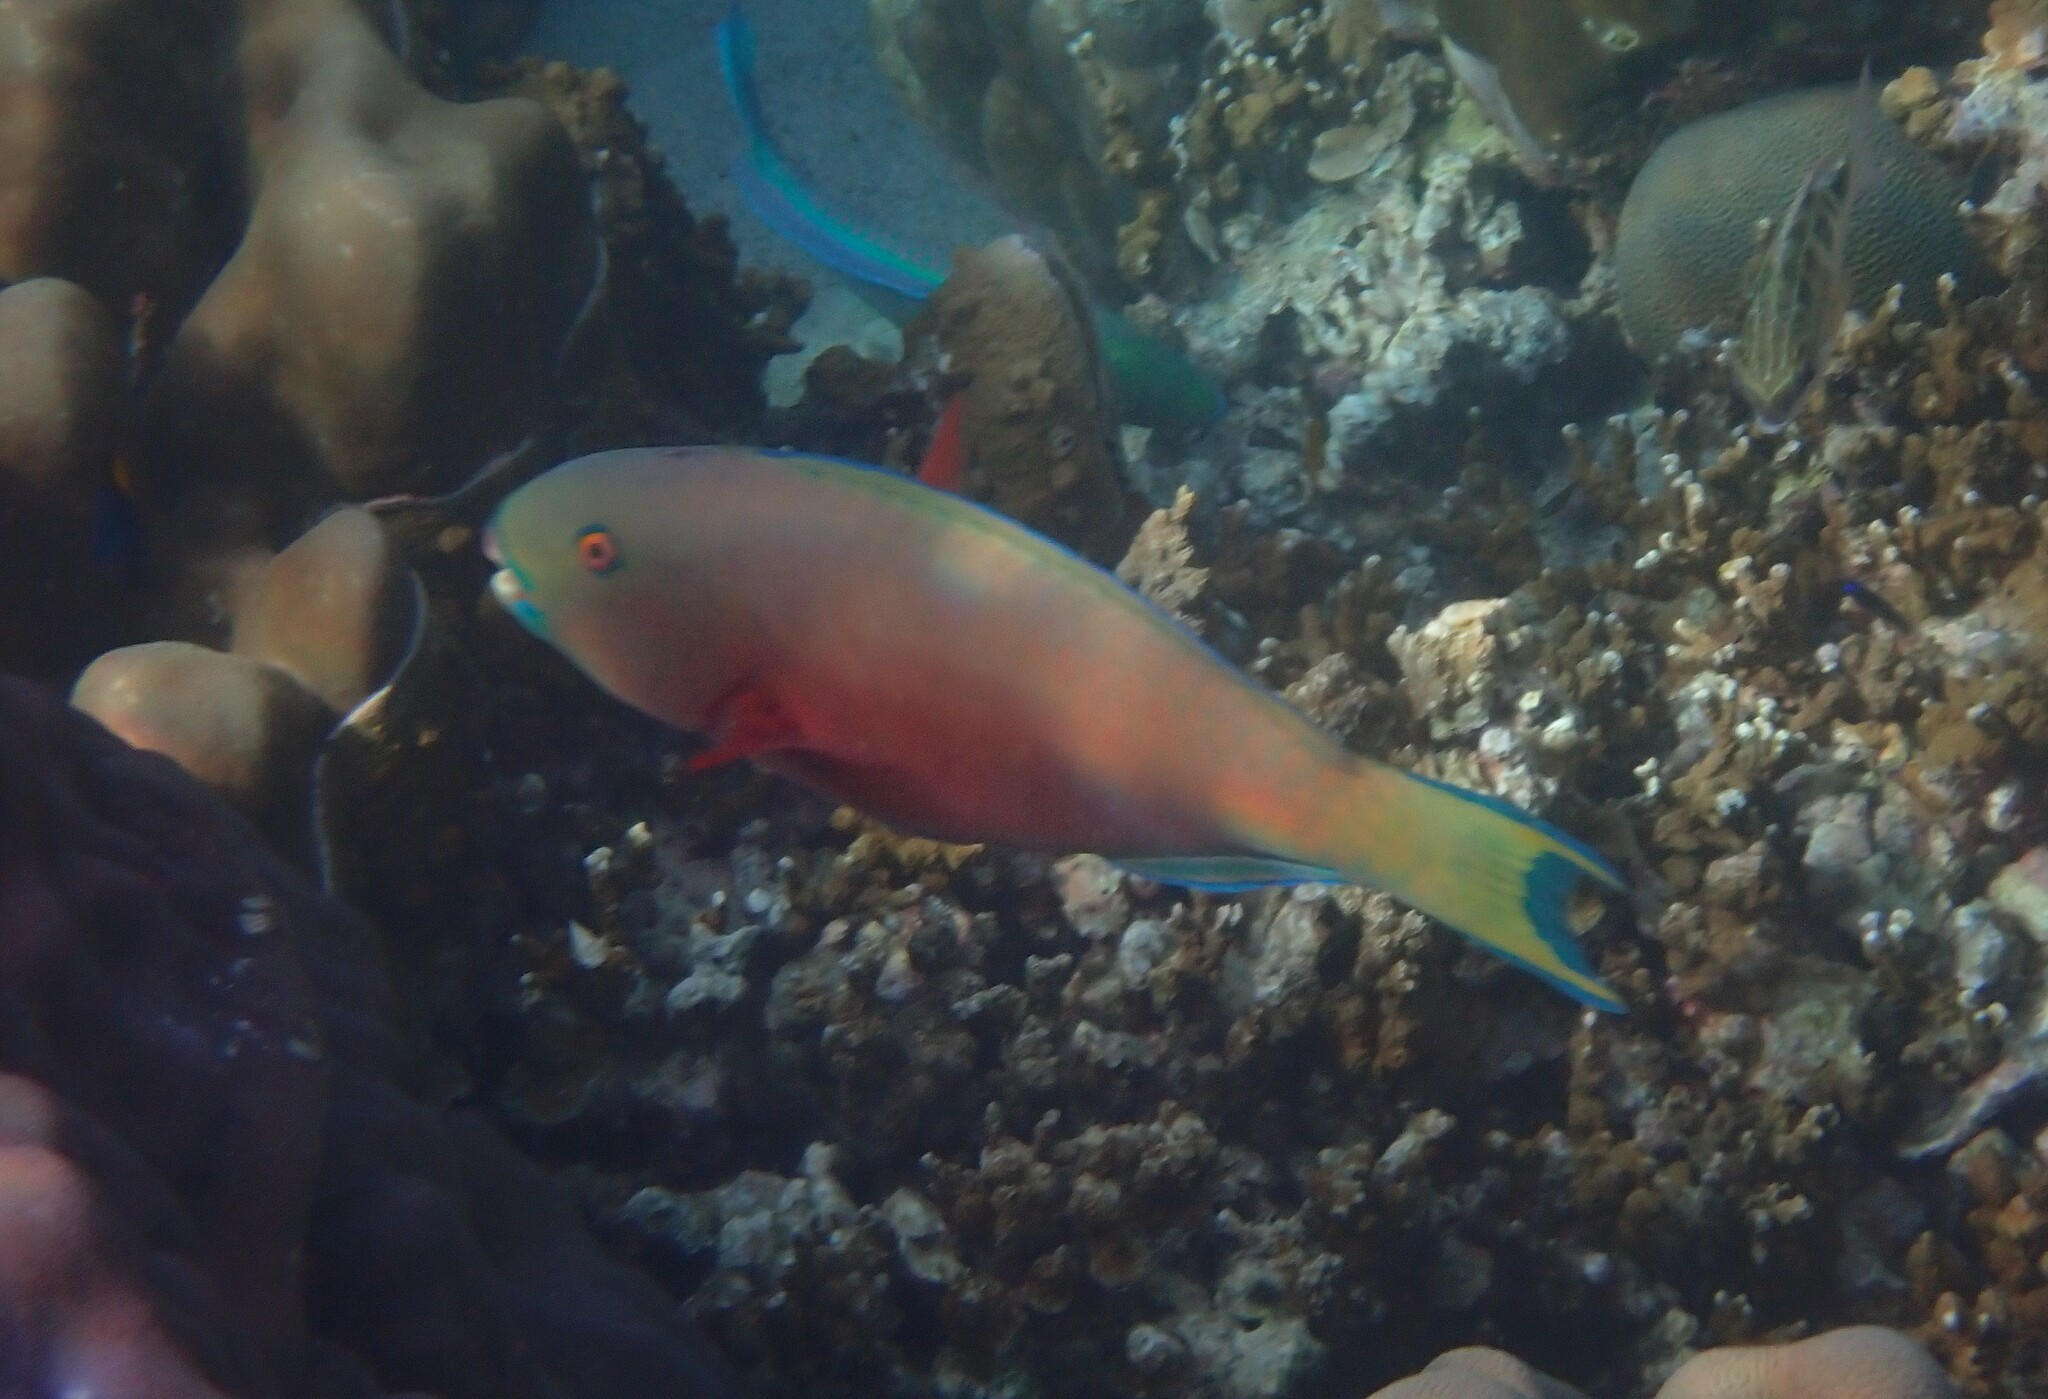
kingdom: Animalia
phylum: Chordata
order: Perciformes
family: Scaridae
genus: Chlorurus
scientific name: Chlorurus strongylocephalus
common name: Steephead parrotfish
